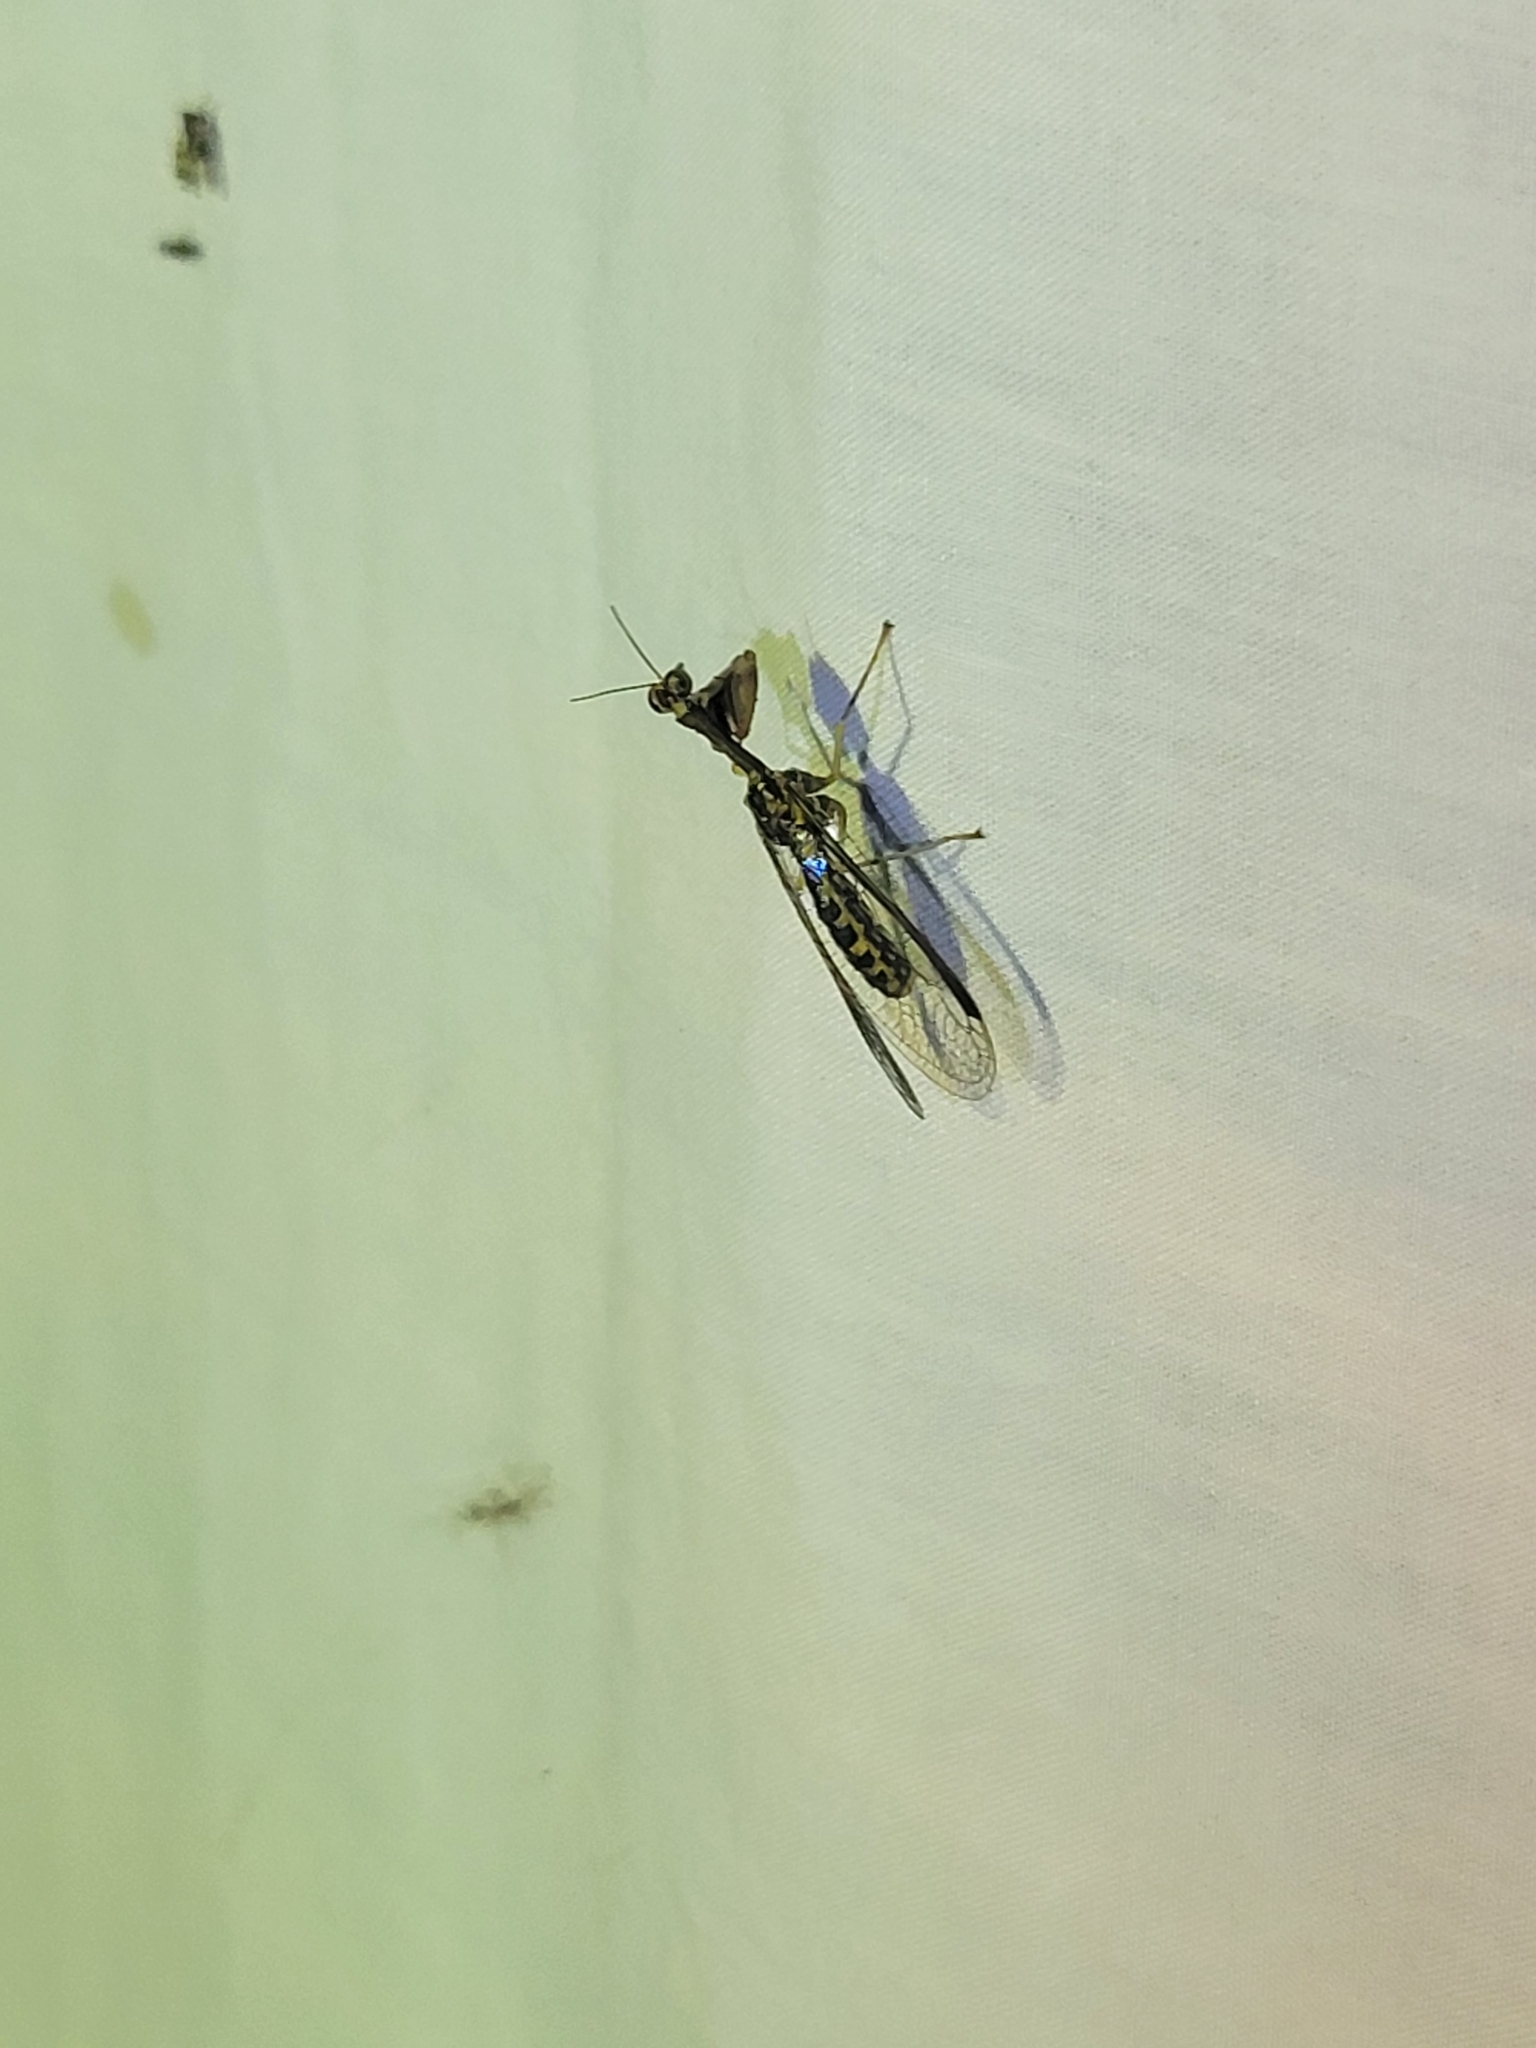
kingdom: Animalia
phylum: Arthropoda
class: Insecta
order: Neuroptera
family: Mantispidae
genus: Dicromantispa
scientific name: Dicromantispa sayi
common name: Say's mantidfly
